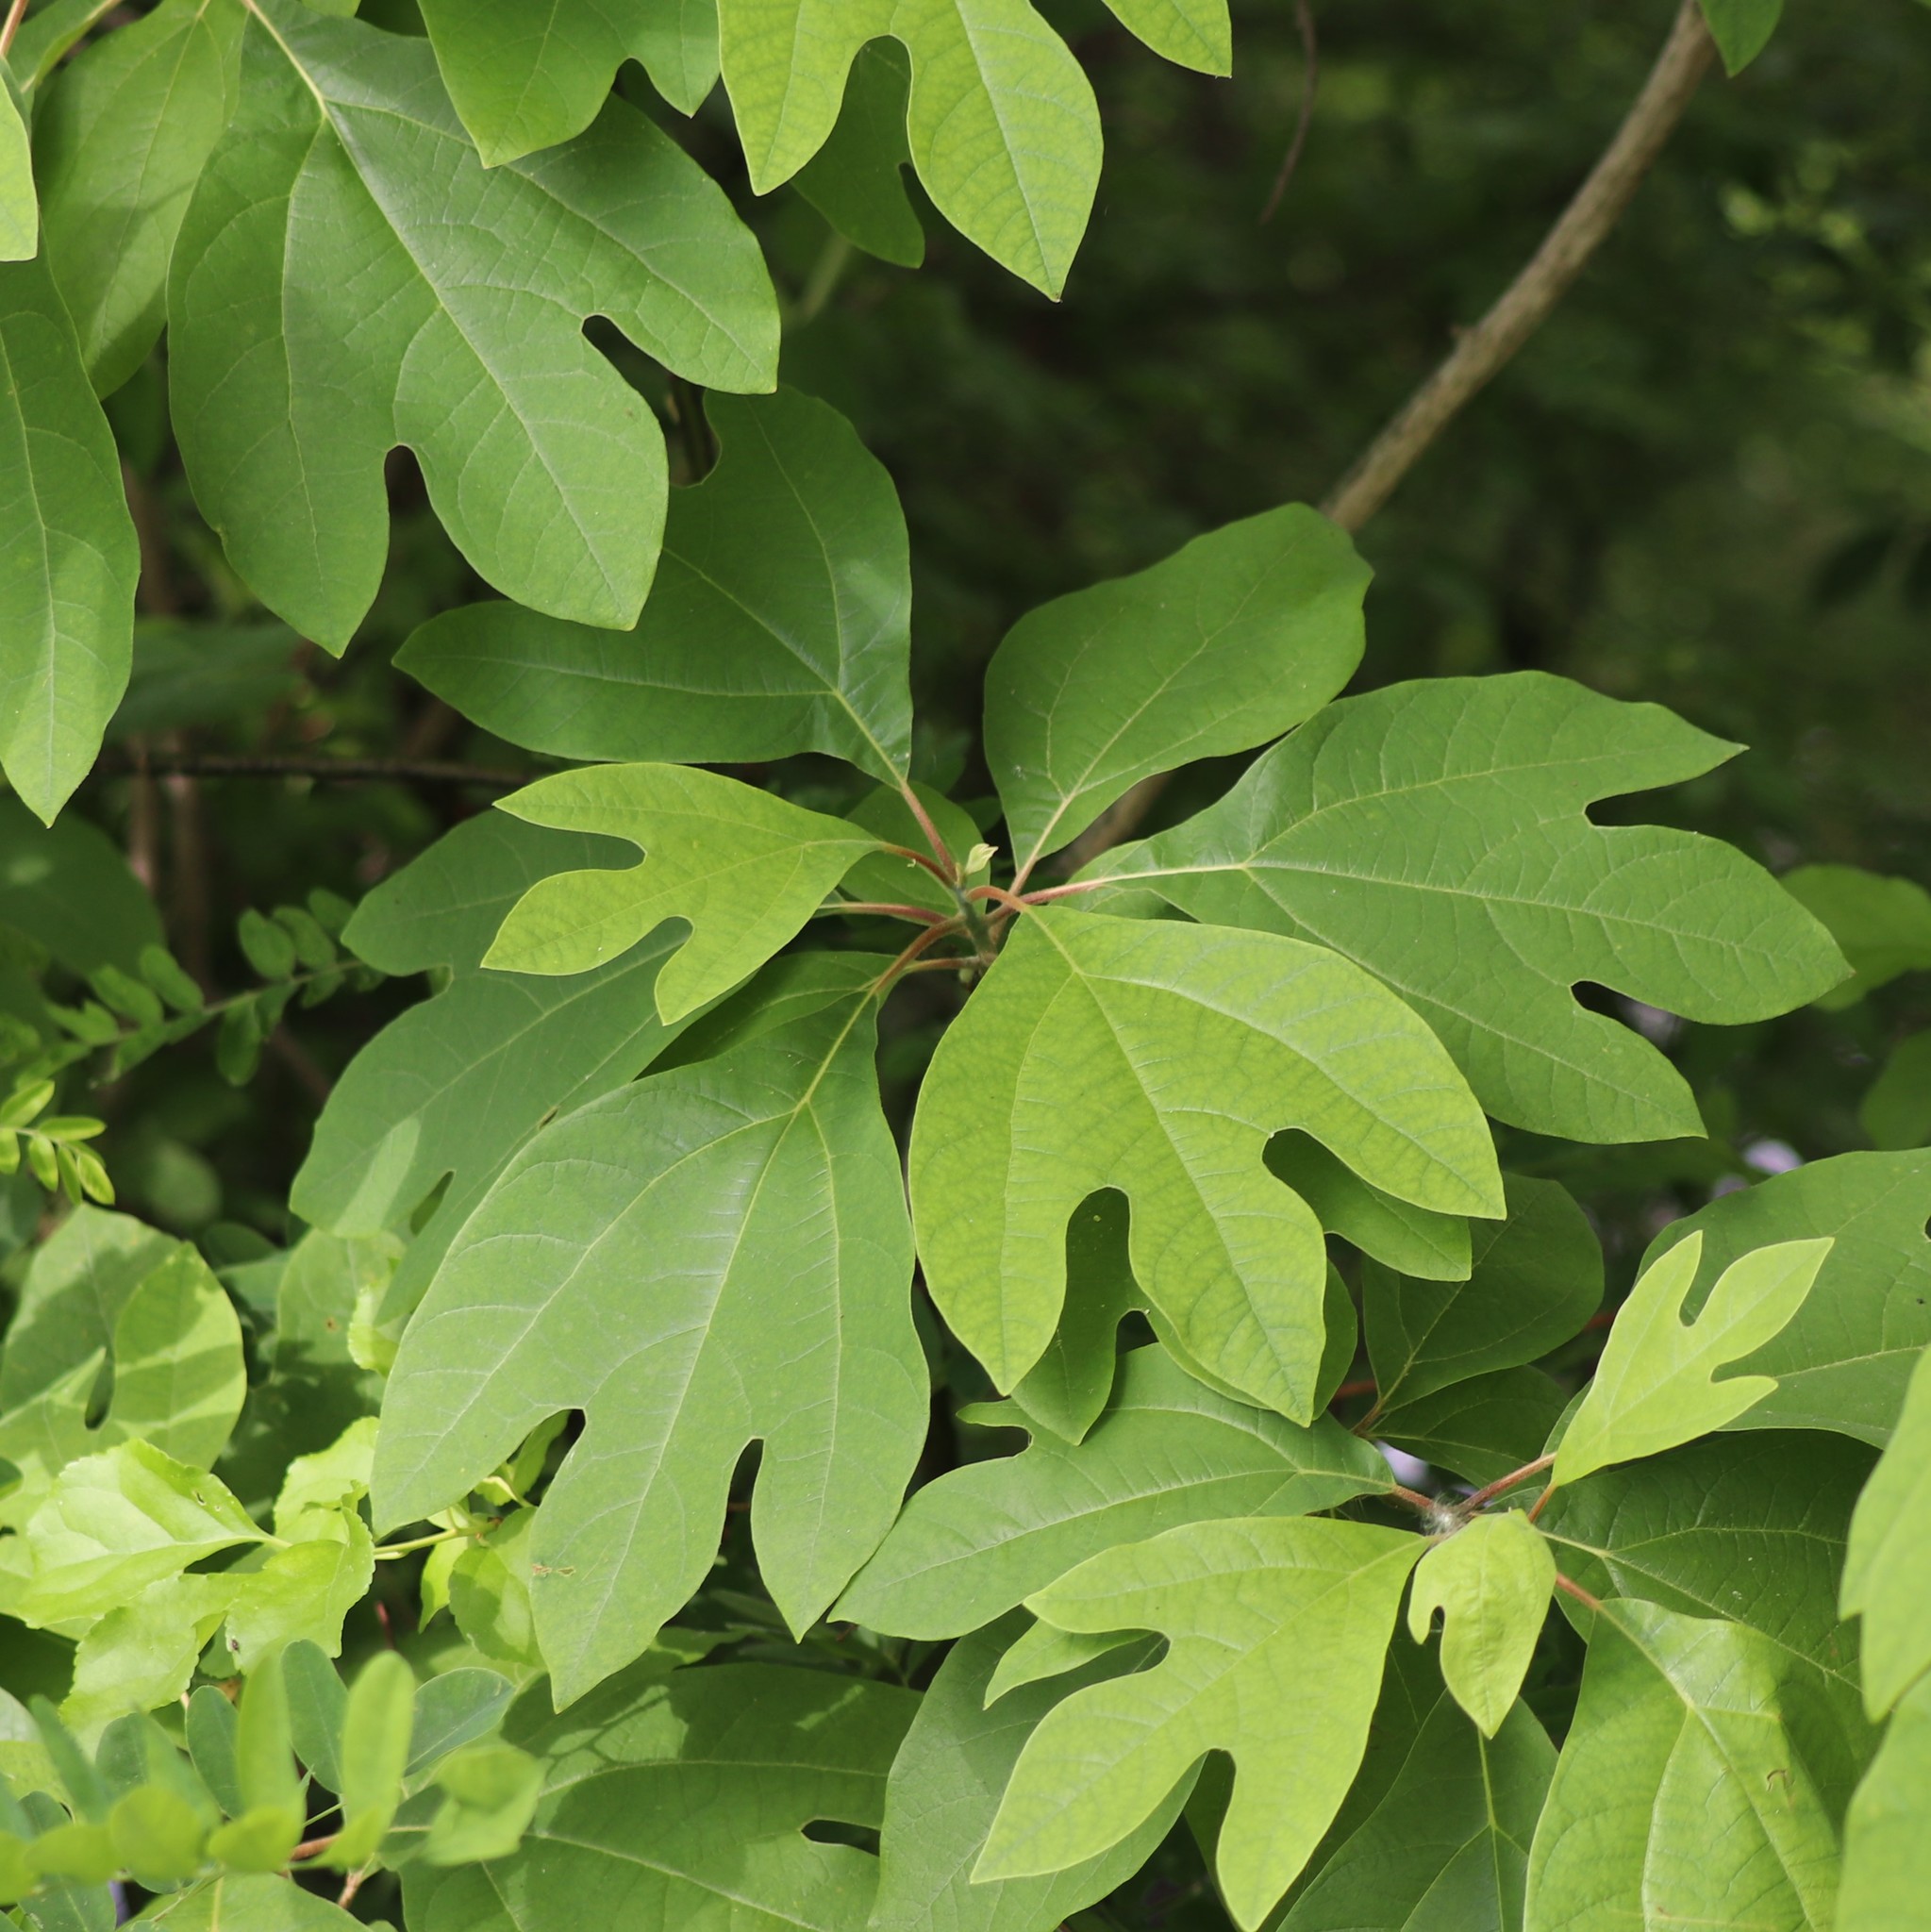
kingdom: Plantae
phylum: Tracheophyta
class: Magnoliopsida
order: Laurales
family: Lauraceae
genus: Sassafras
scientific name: Sassafras albidum
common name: Sassafras
